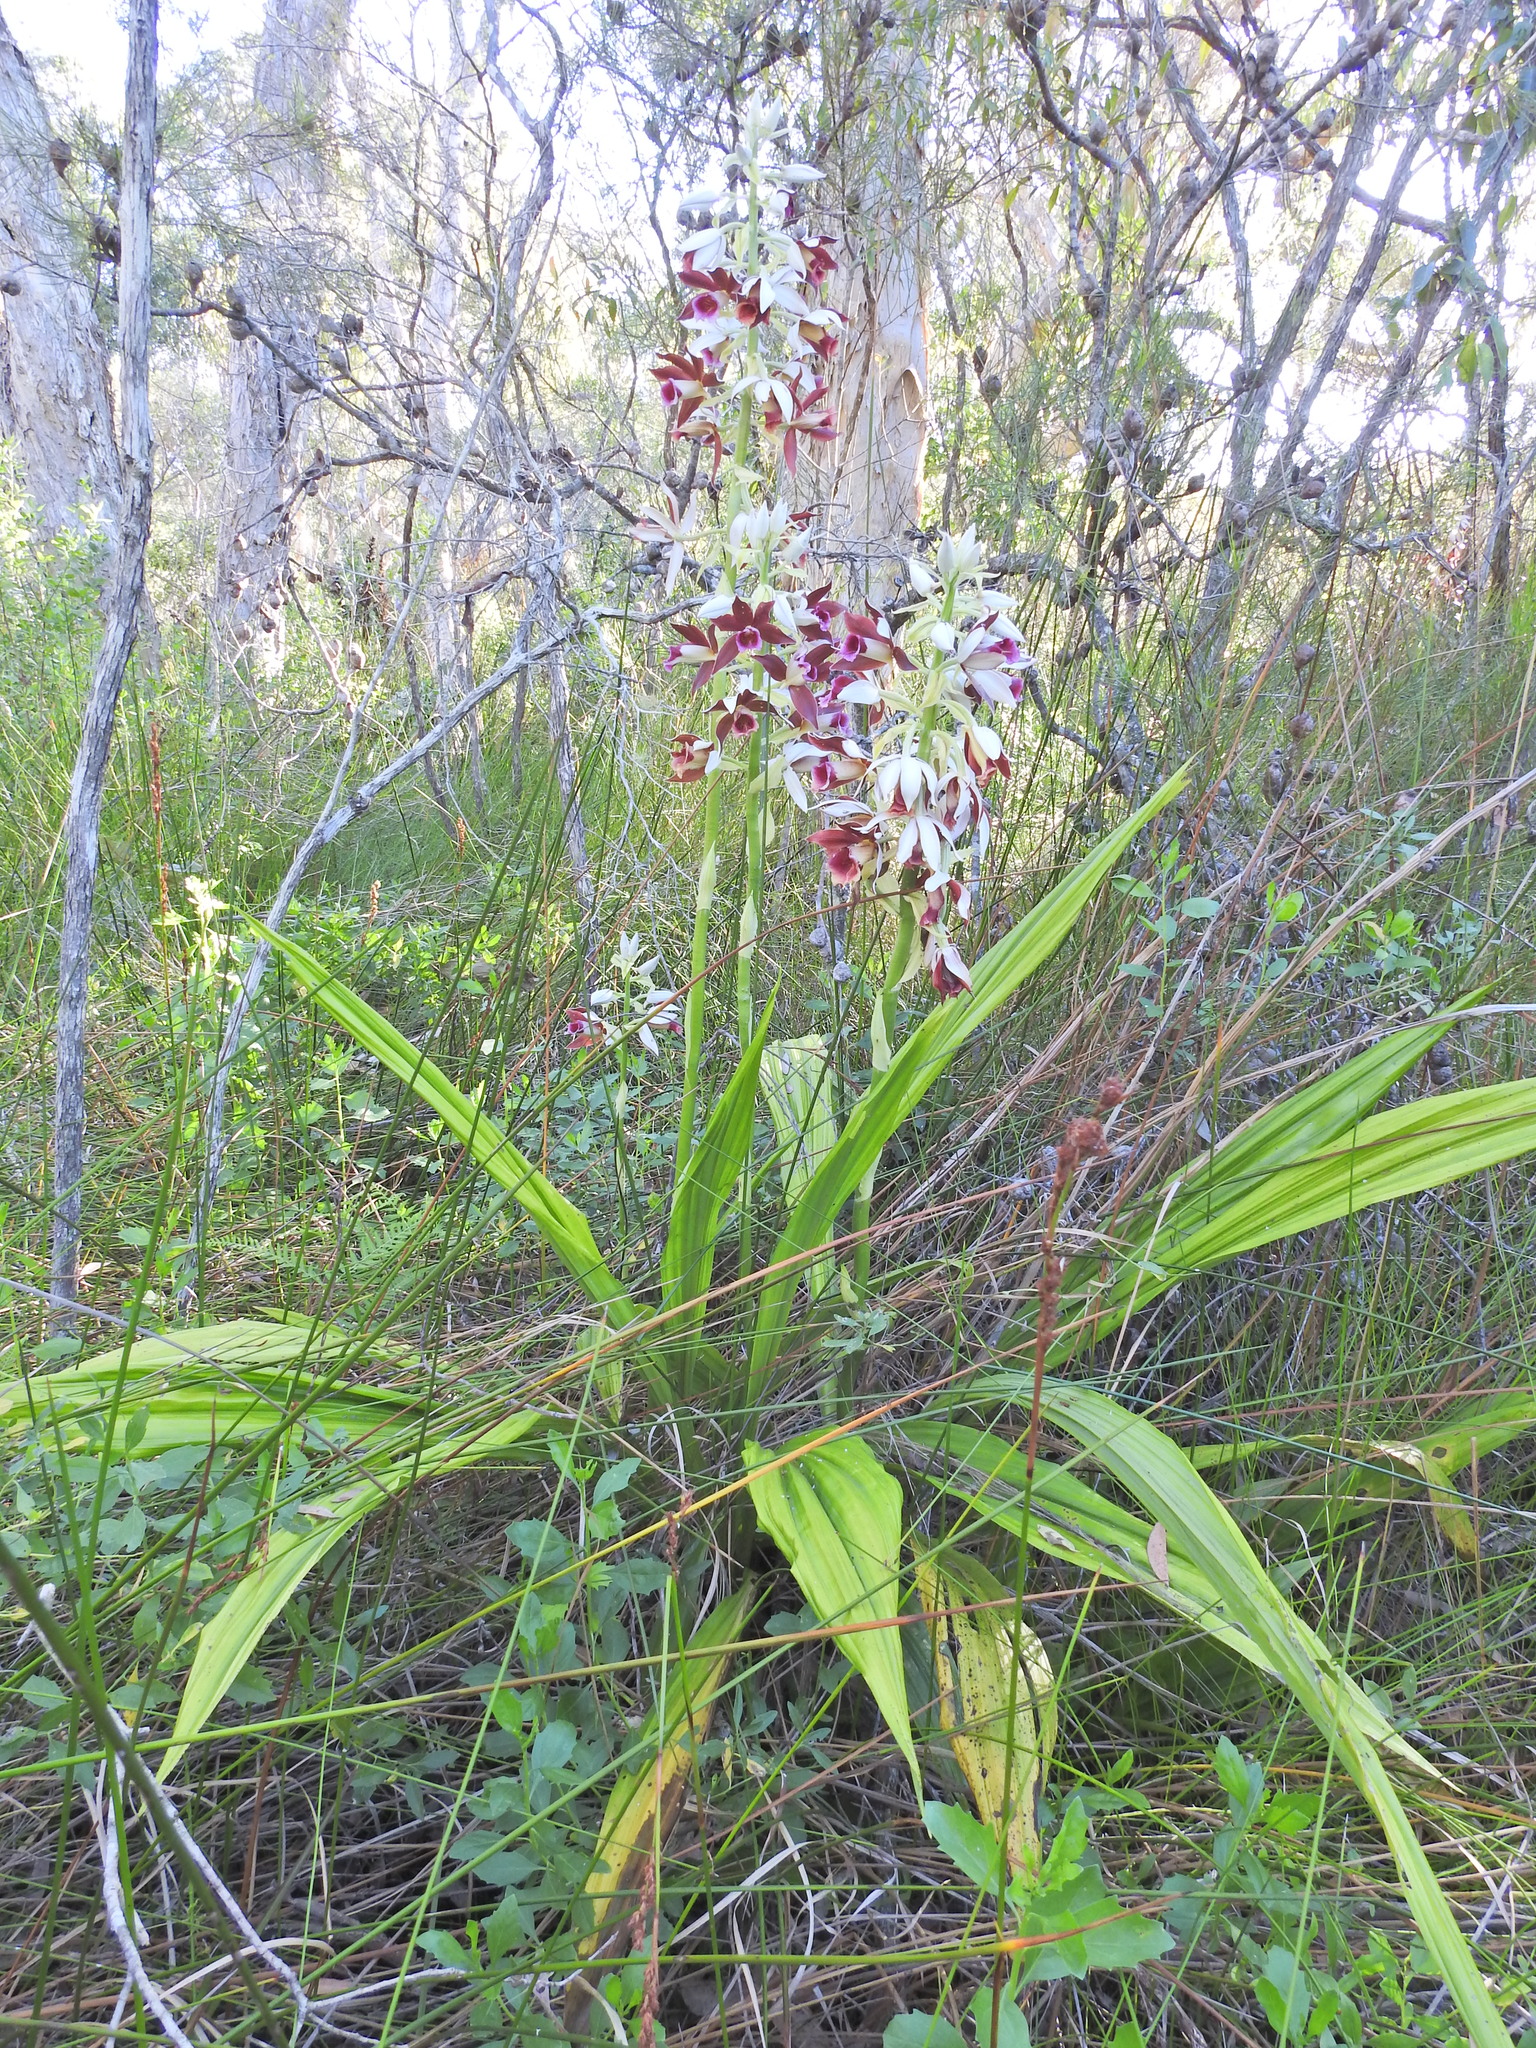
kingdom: Plantae
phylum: Tracheophyta
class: Liliopsida
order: Asparagales
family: Orchidaceae
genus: Calanthe
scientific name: Calanthe tankervilleae
